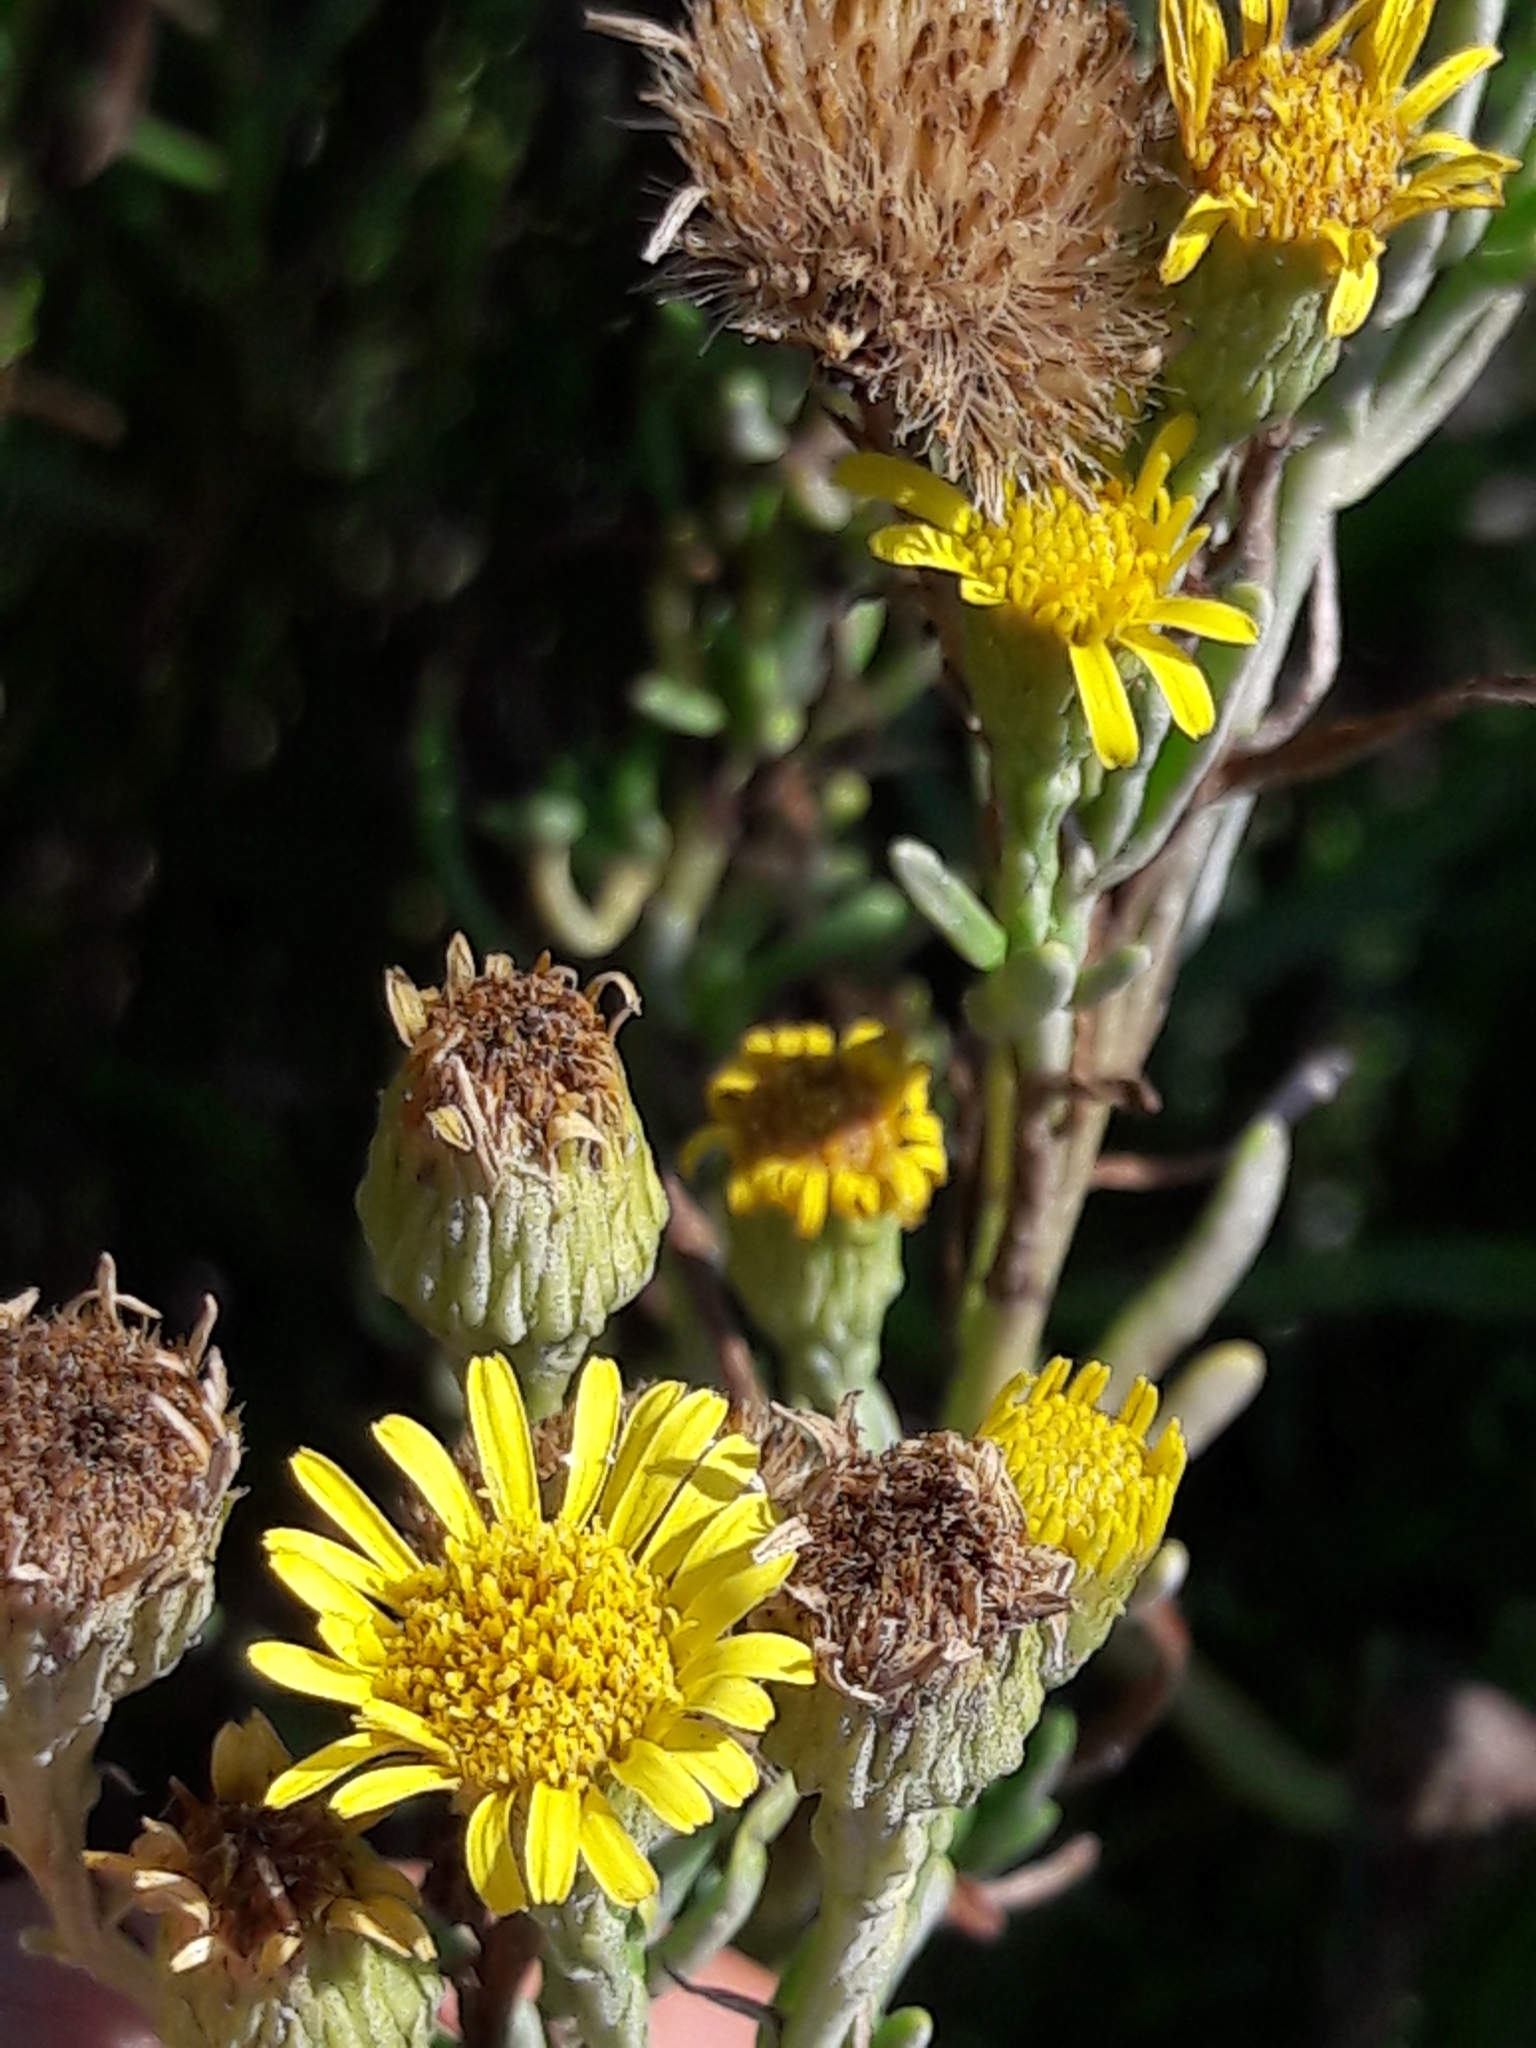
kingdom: Plantae
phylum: Tracheophyta
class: Magnoliopsida
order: Asterales
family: Asteraceae
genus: Limbarda
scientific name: Limbarda crithmoides
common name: Golden samphire
